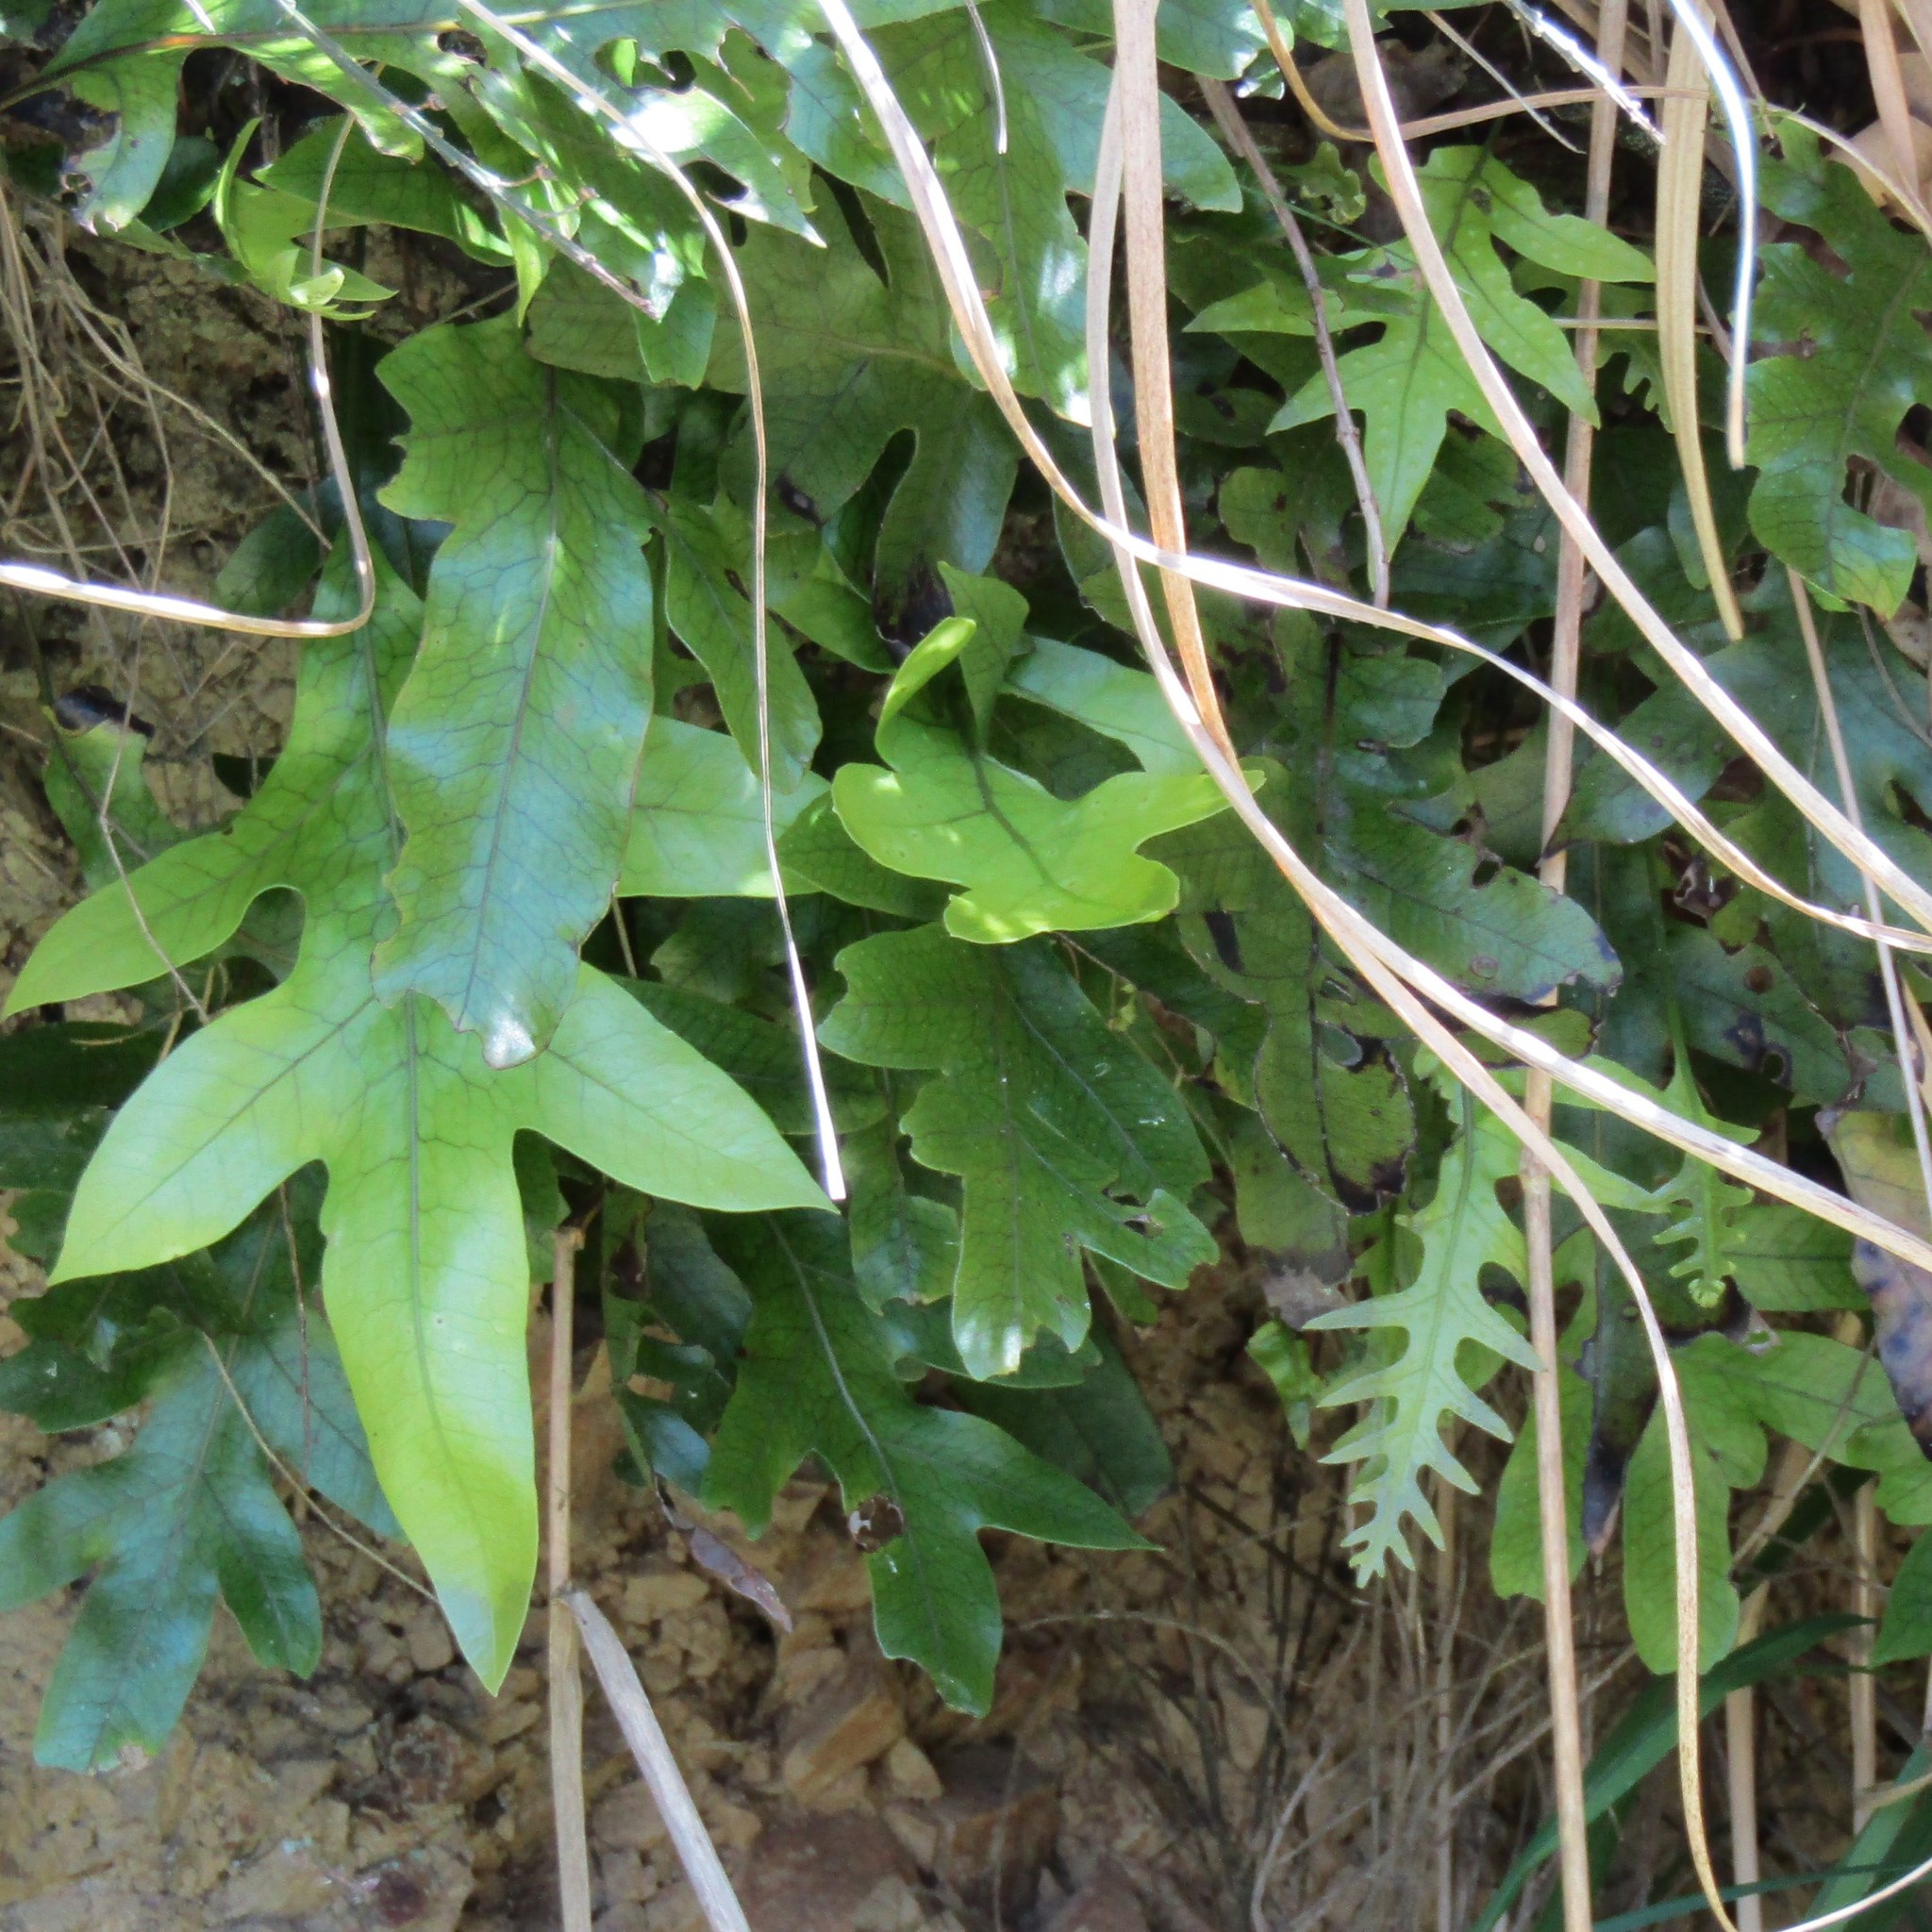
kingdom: Plantae
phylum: Tracheophyta
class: Polypodiopsida
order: Polypodiales
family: Polypodiaceae
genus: Lecanopteris
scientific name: Lecanopteris pustulata
